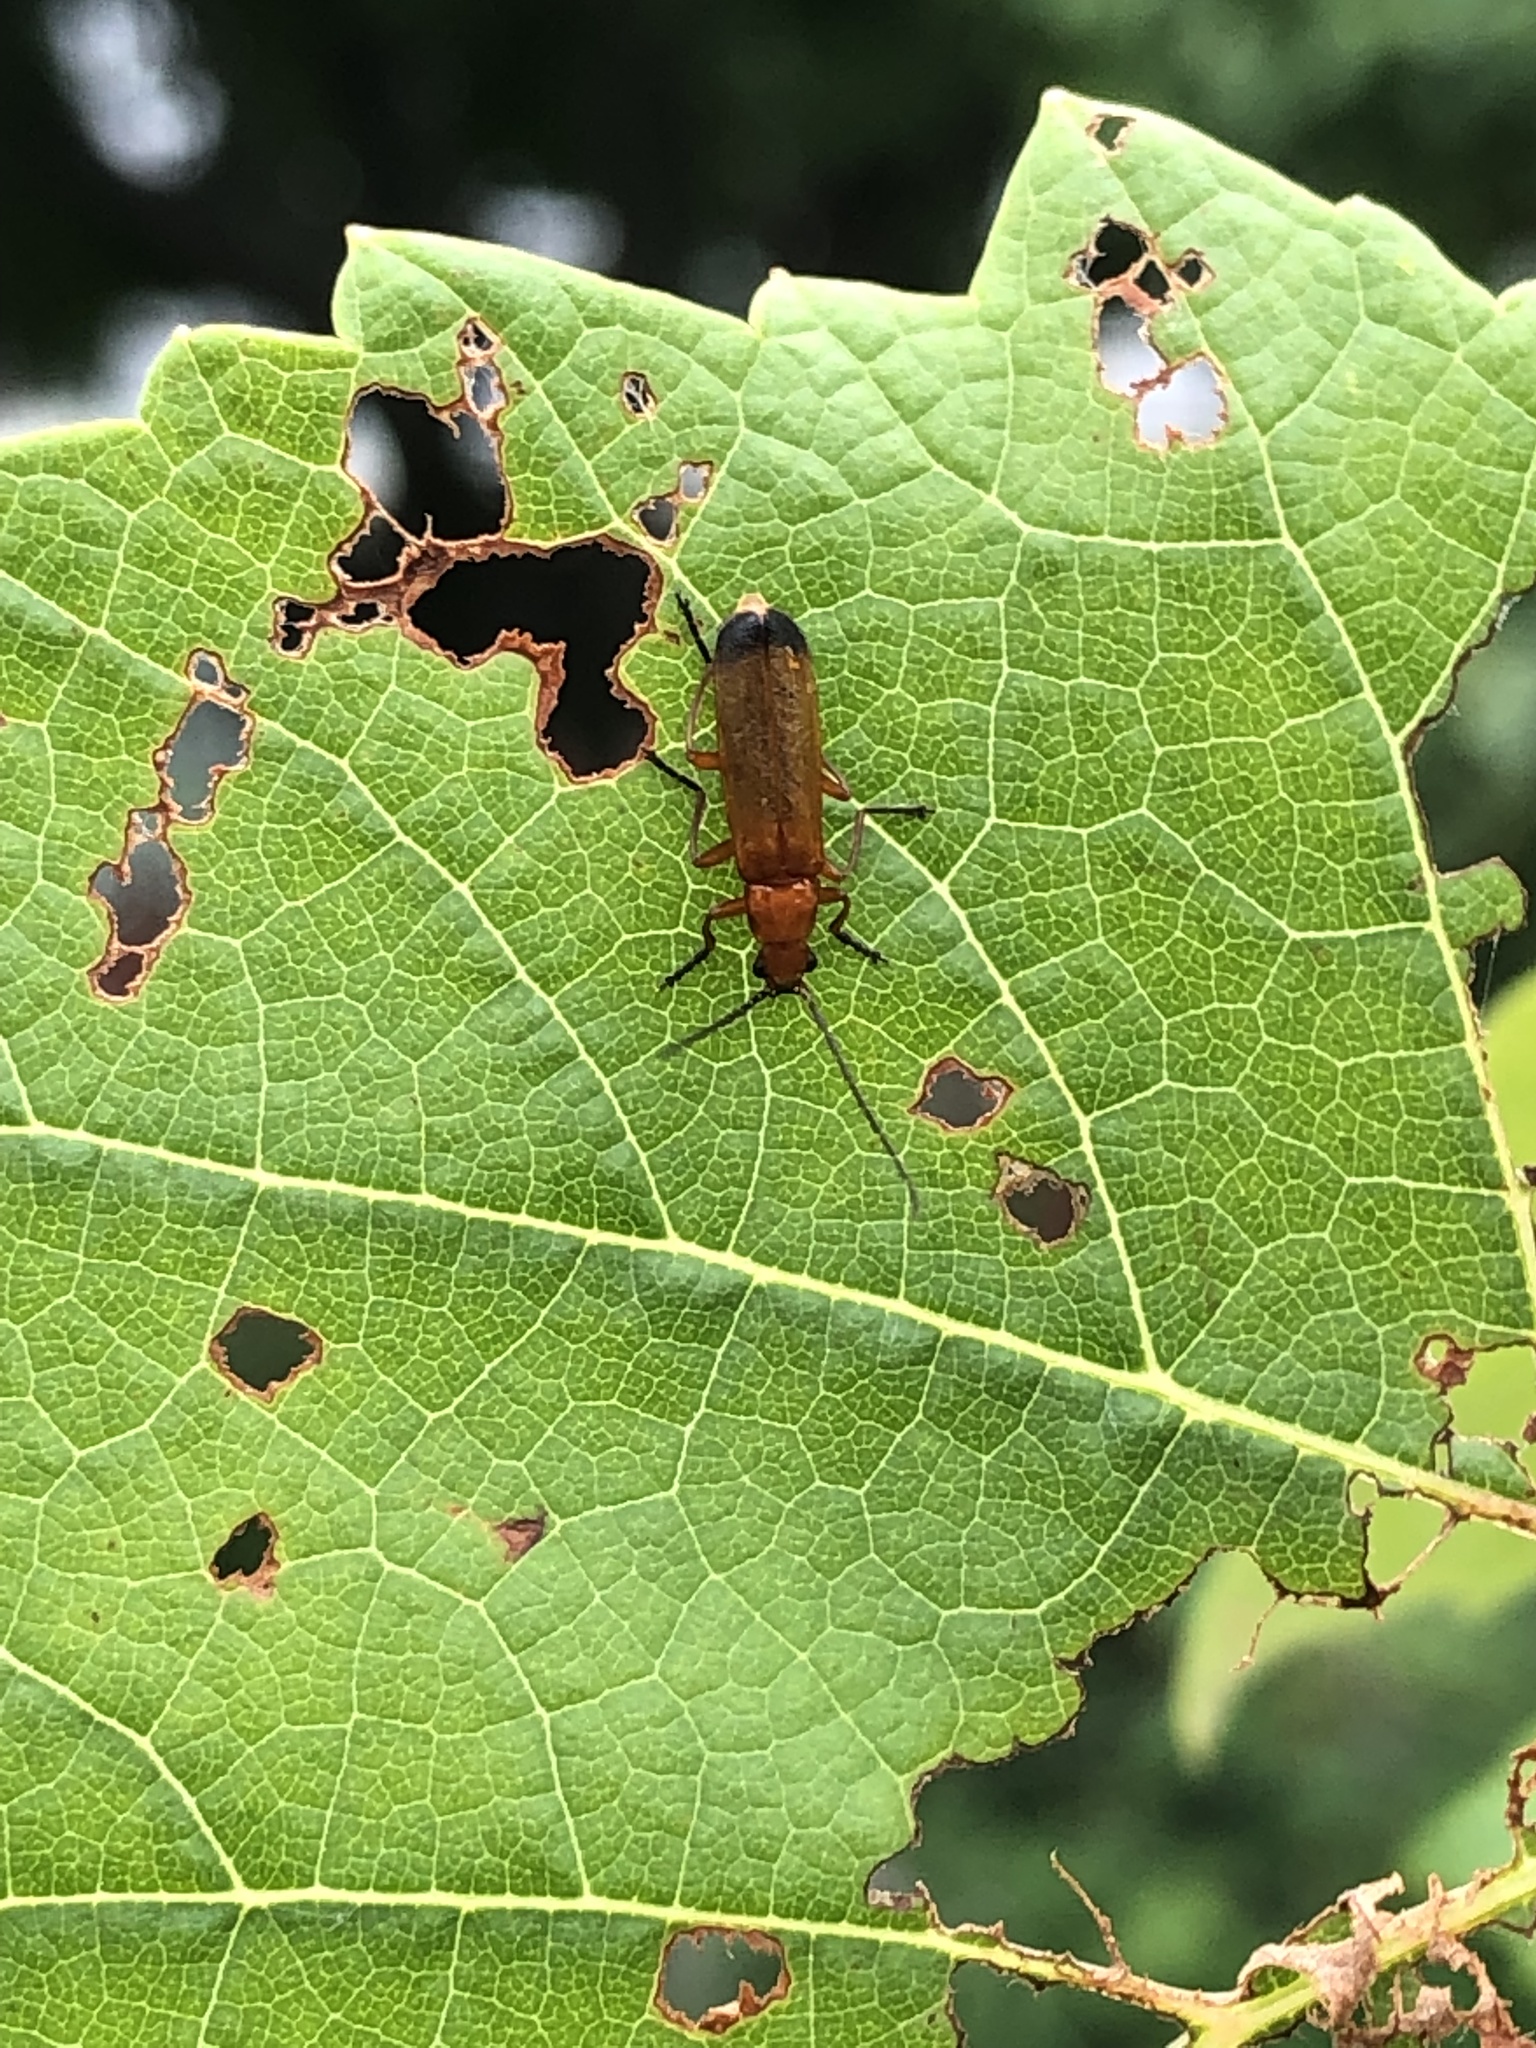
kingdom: Animalia
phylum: Arthropoda
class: Insecta
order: Coleoptera
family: Cantharidae
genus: Rhagonycha
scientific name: Rhagonycha fulva
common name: Common red soldier beetle
